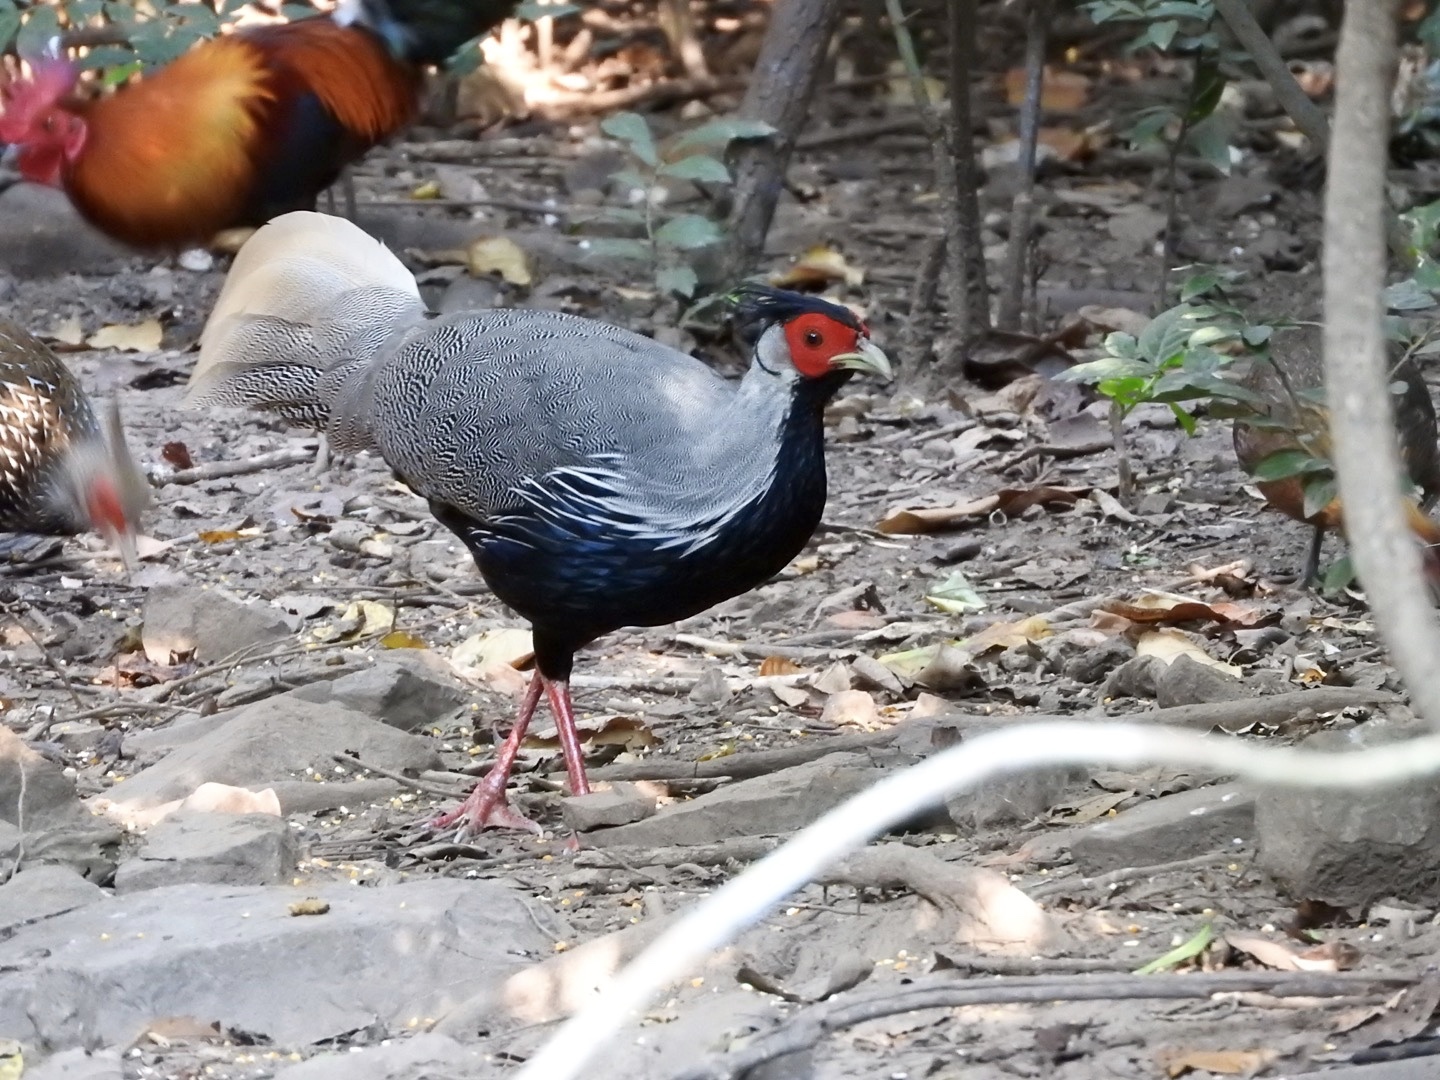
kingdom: Animalia
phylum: Chordata
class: Aves
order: Galliformes
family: Phasianidae
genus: Lophura
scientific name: Lophura leucomelanos
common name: Kalij pheasant
